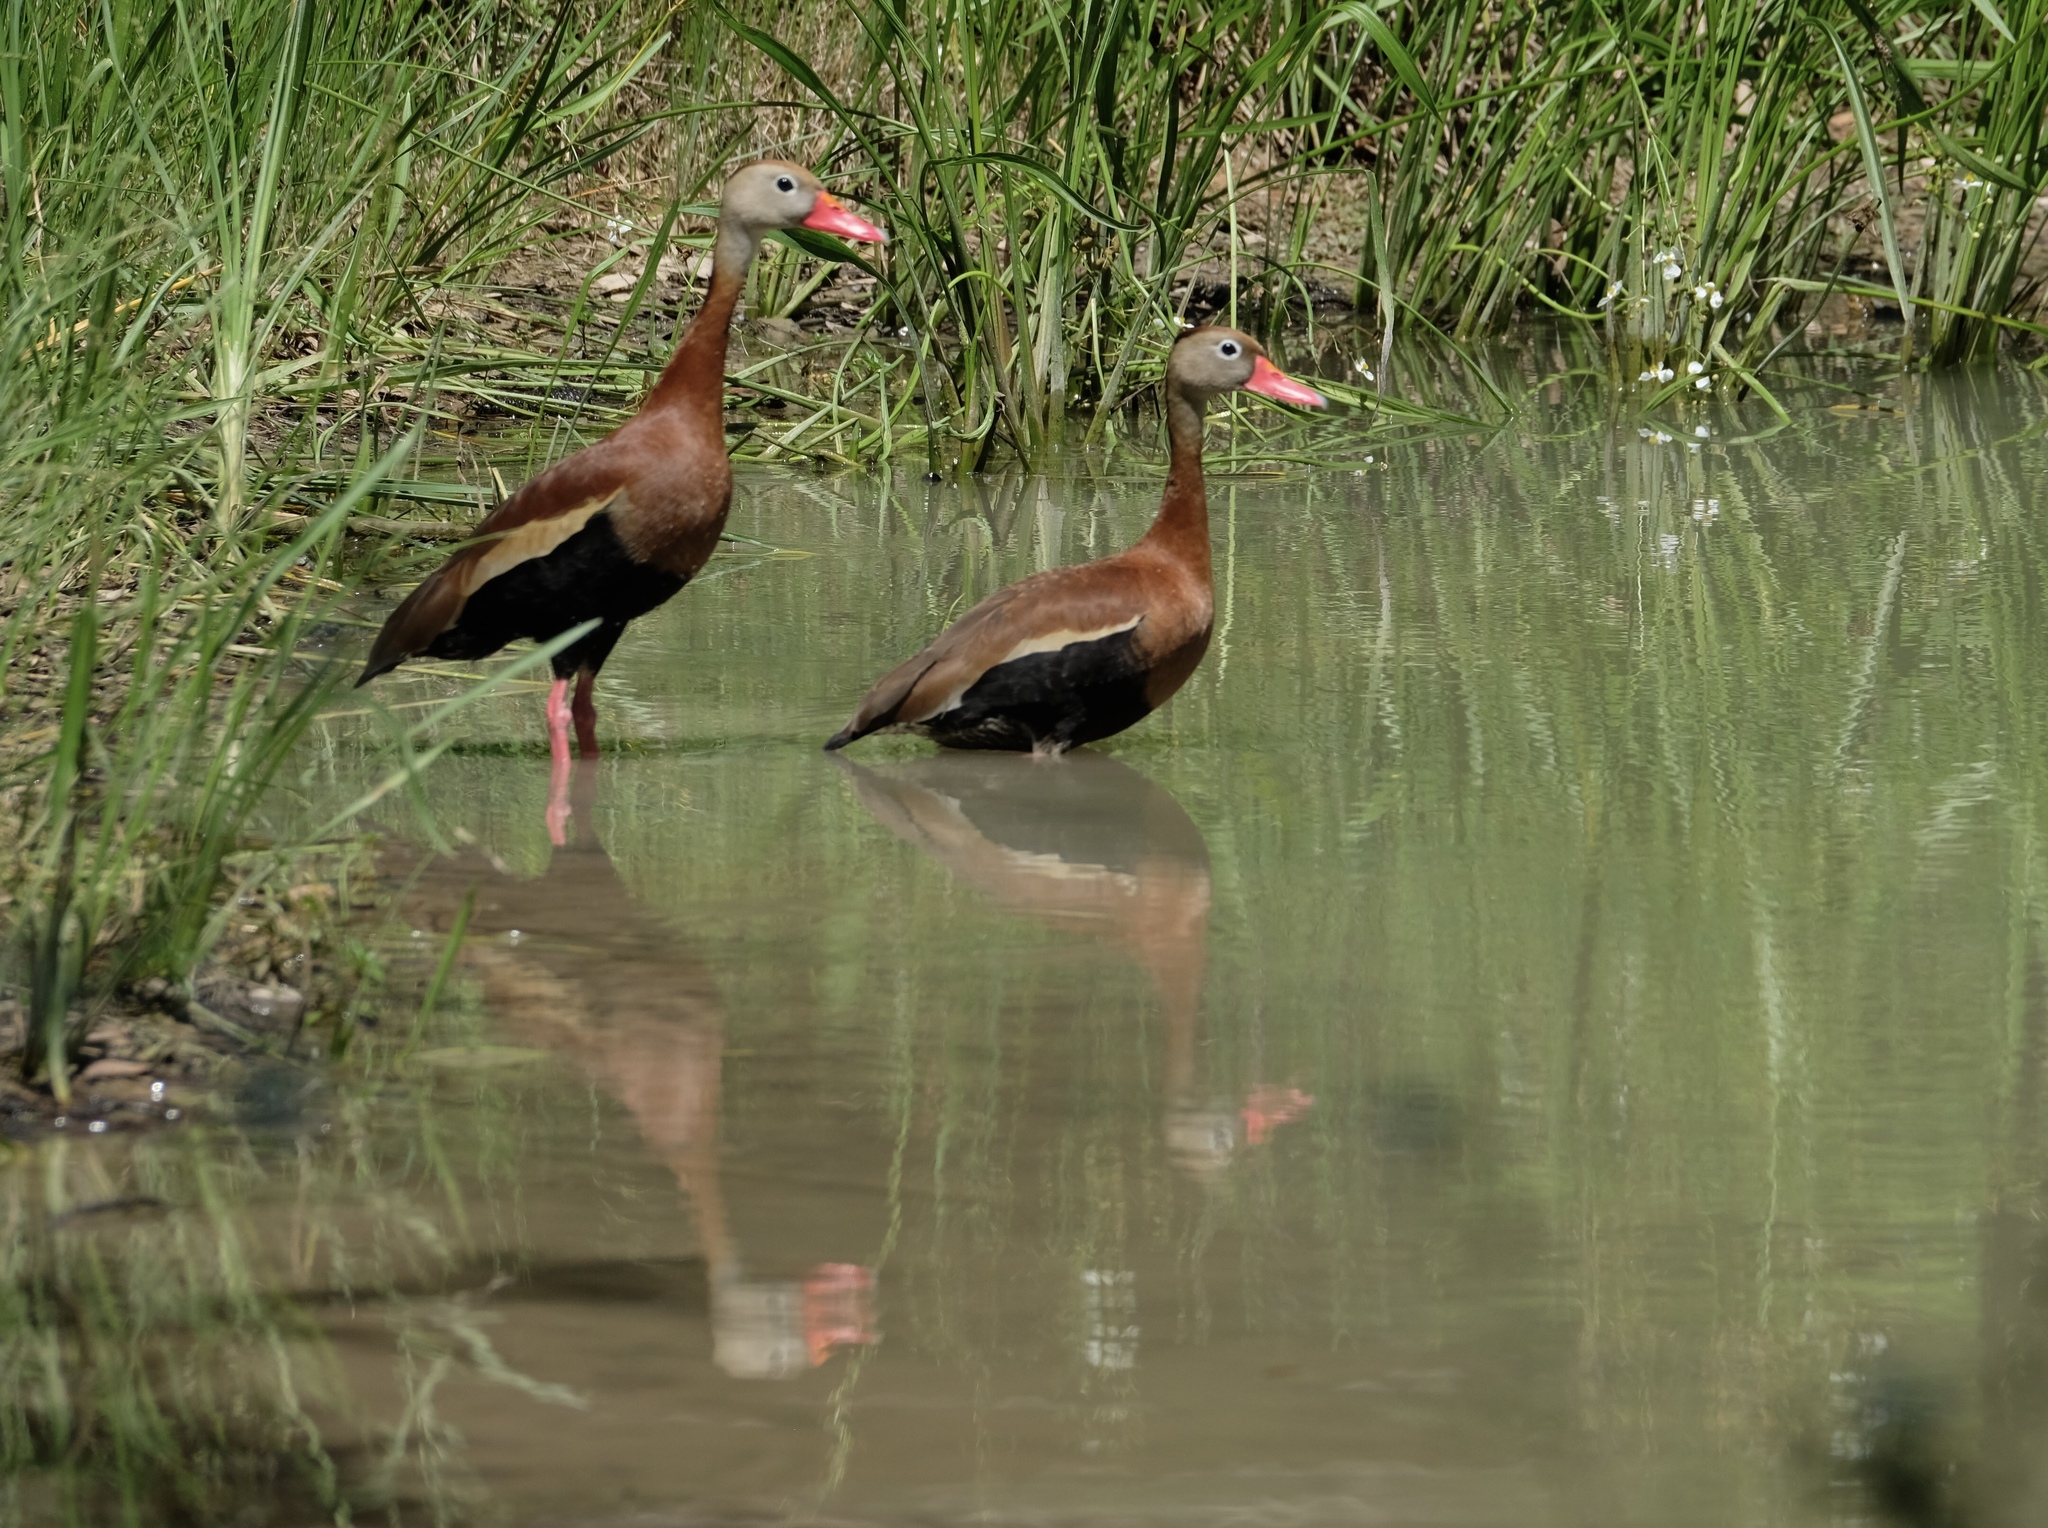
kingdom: Animalia
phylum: Chordata
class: Aves
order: Anseriformes
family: Anatidae
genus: Dendrocygna
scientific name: Dendrocygna autumnalis
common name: Black-bellied whistling duck
